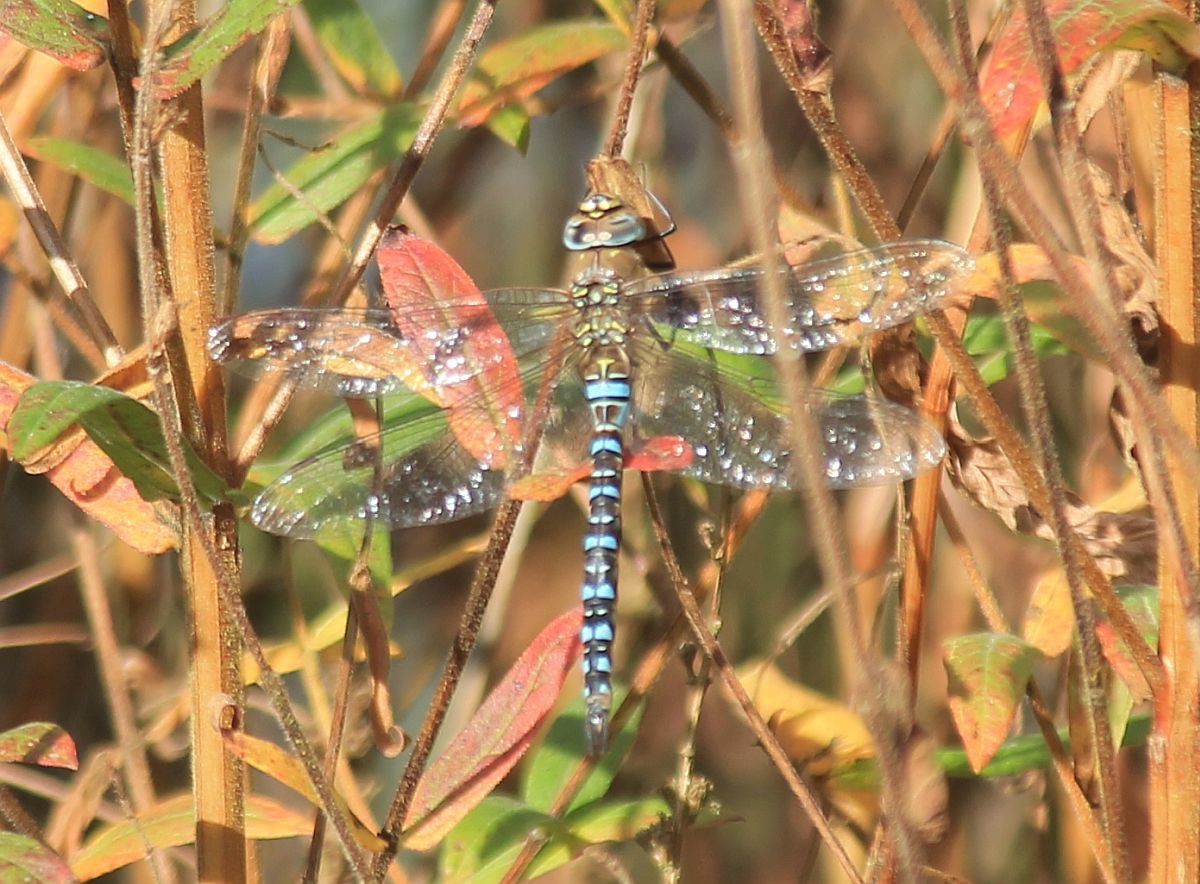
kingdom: Animalia
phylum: Arthropoda
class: Insecta
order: Odonata
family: Aeshnidae
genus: Aeshna
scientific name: Aeshna mixta
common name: Migrant hawker
